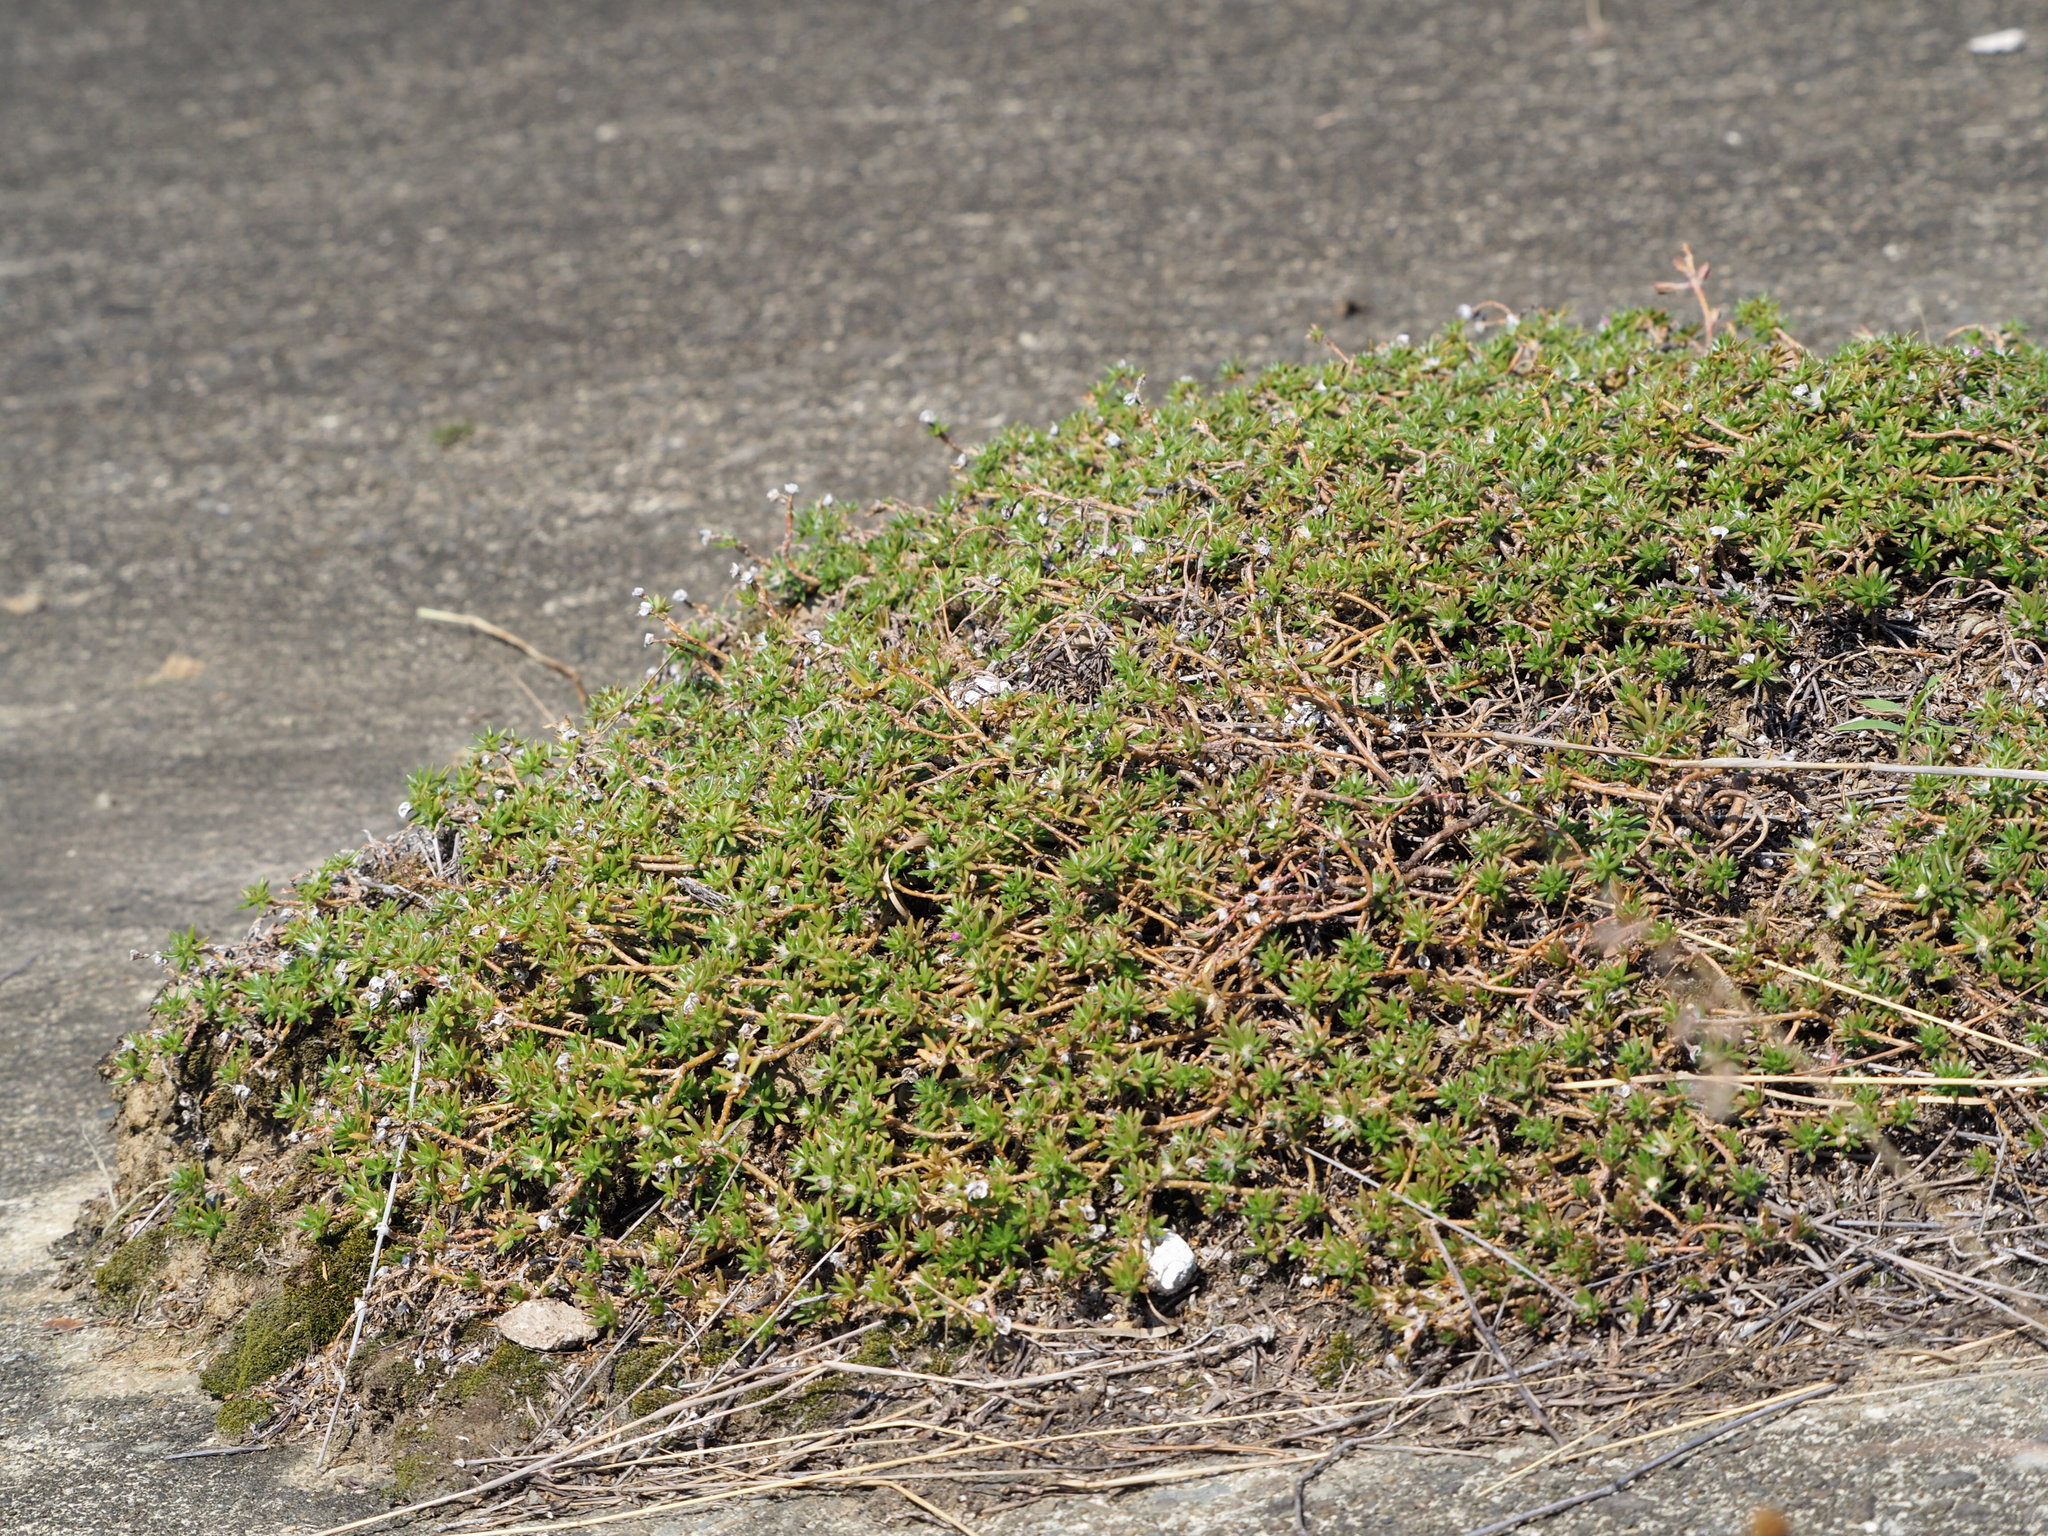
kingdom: Plantae
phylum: Tracheophyta
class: Magnoliopsida
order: Caryophyllales
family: Portulacaceae
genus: Portulaca
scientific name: Portulaca pilosa
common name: Kiss me quick
